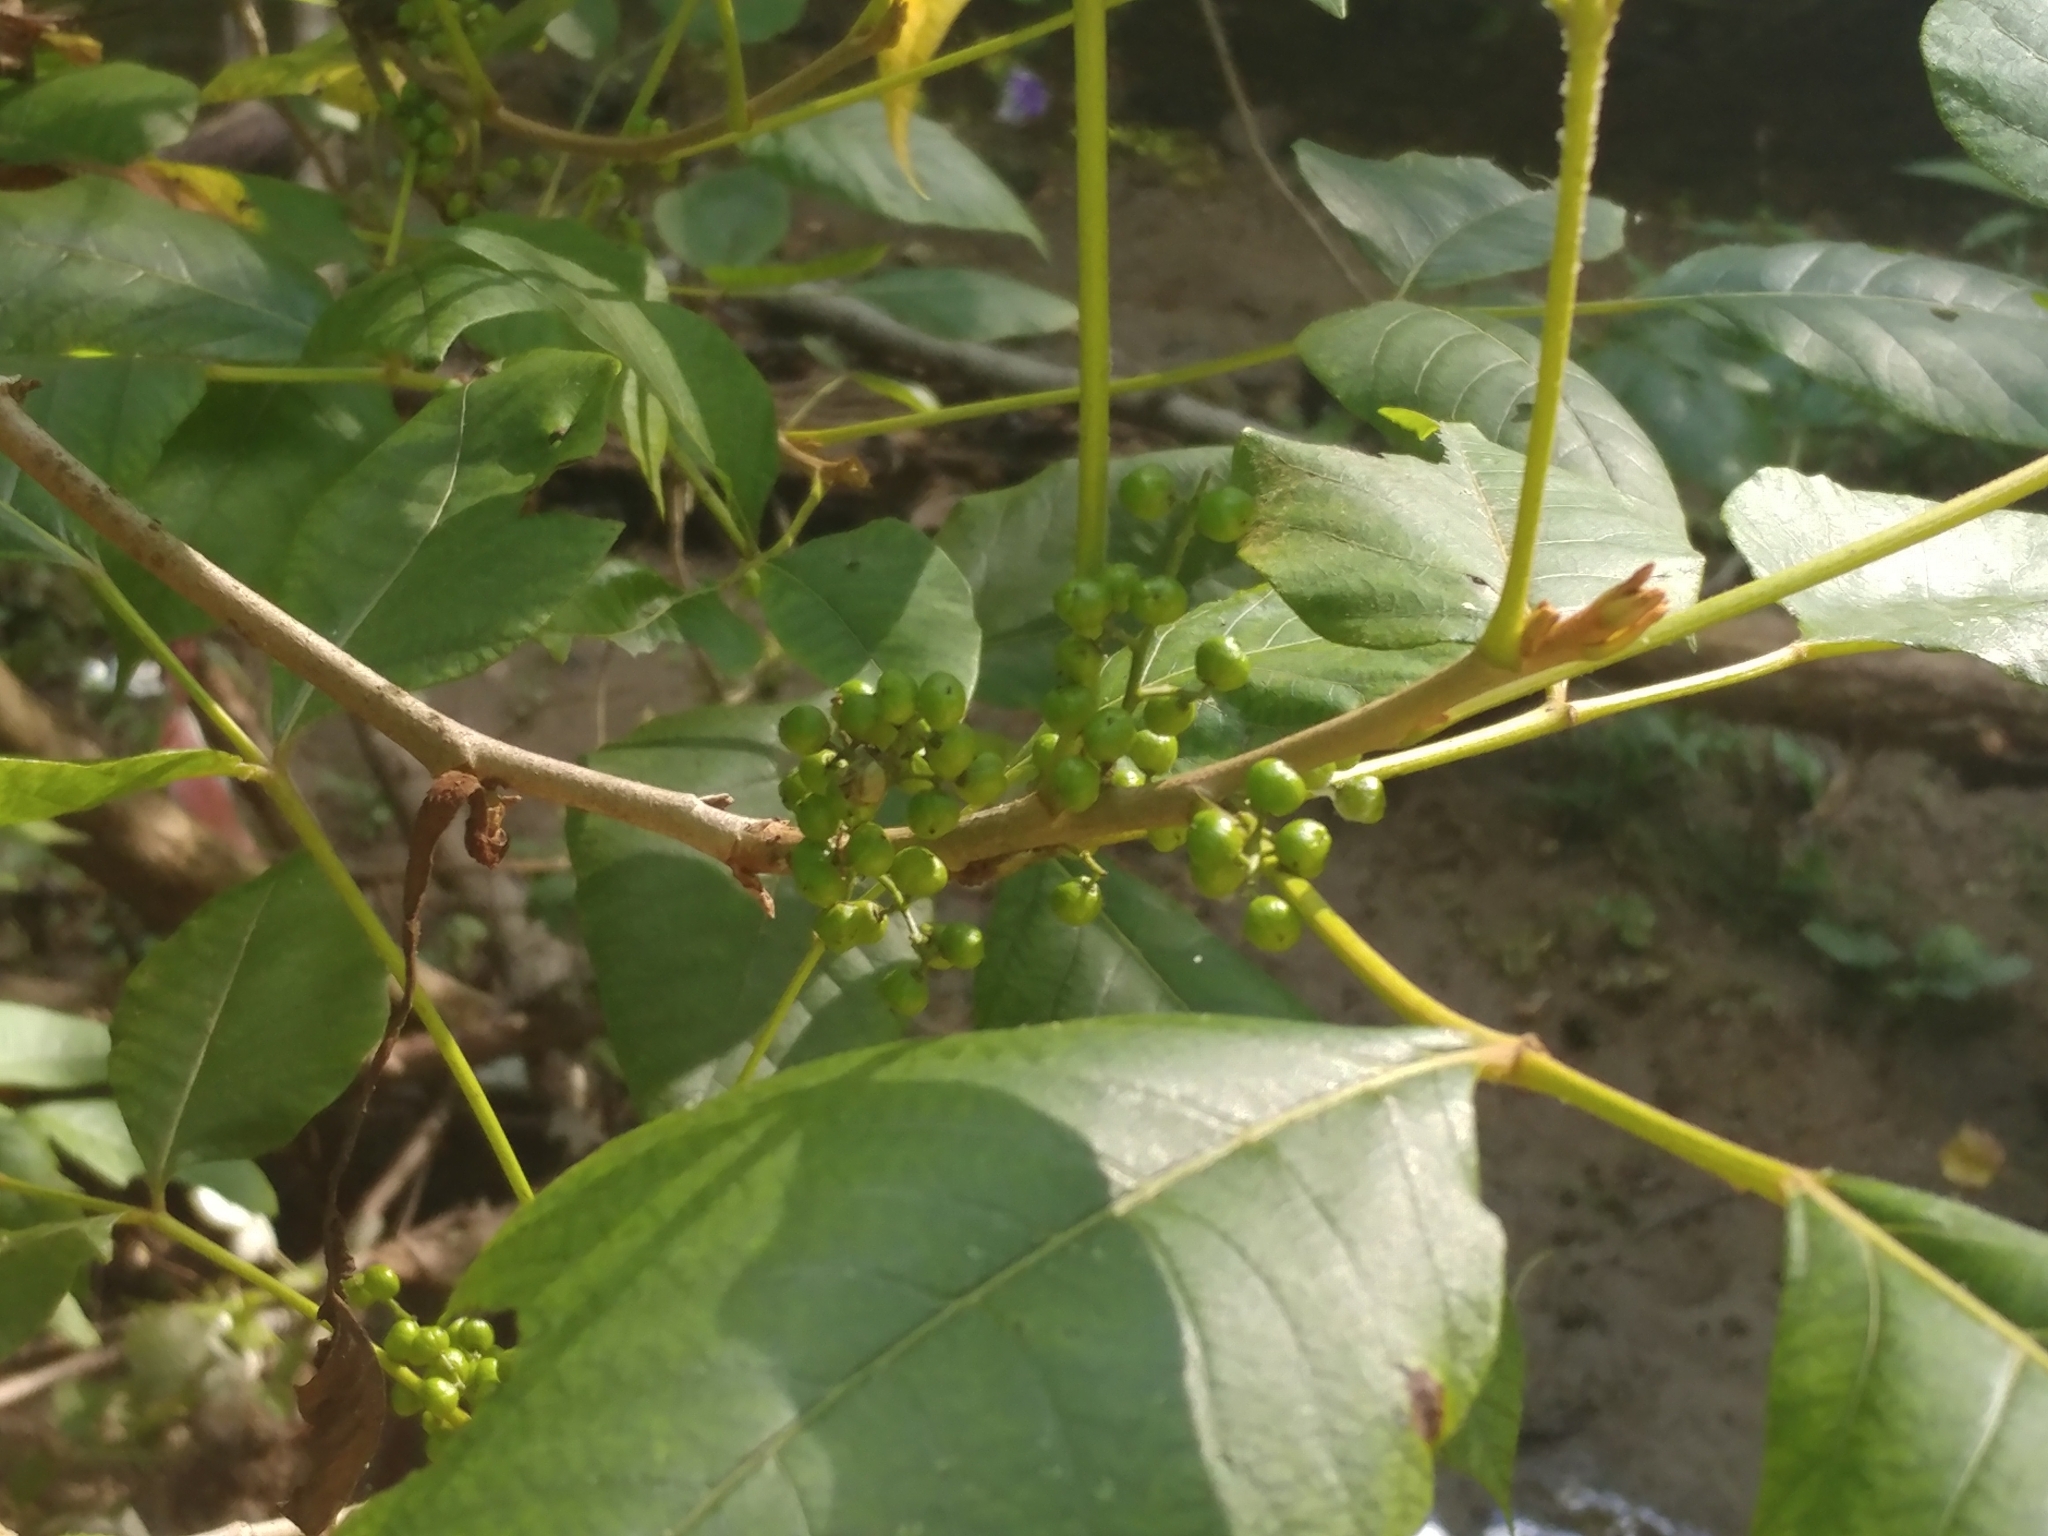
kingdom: Plantae
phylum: Tracheophyta
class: Magnoliopsida
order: Sapindales
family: Anacardiaceae
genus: Toxicodendron
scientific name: Toxicodendron radicans
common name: Poison ivy
